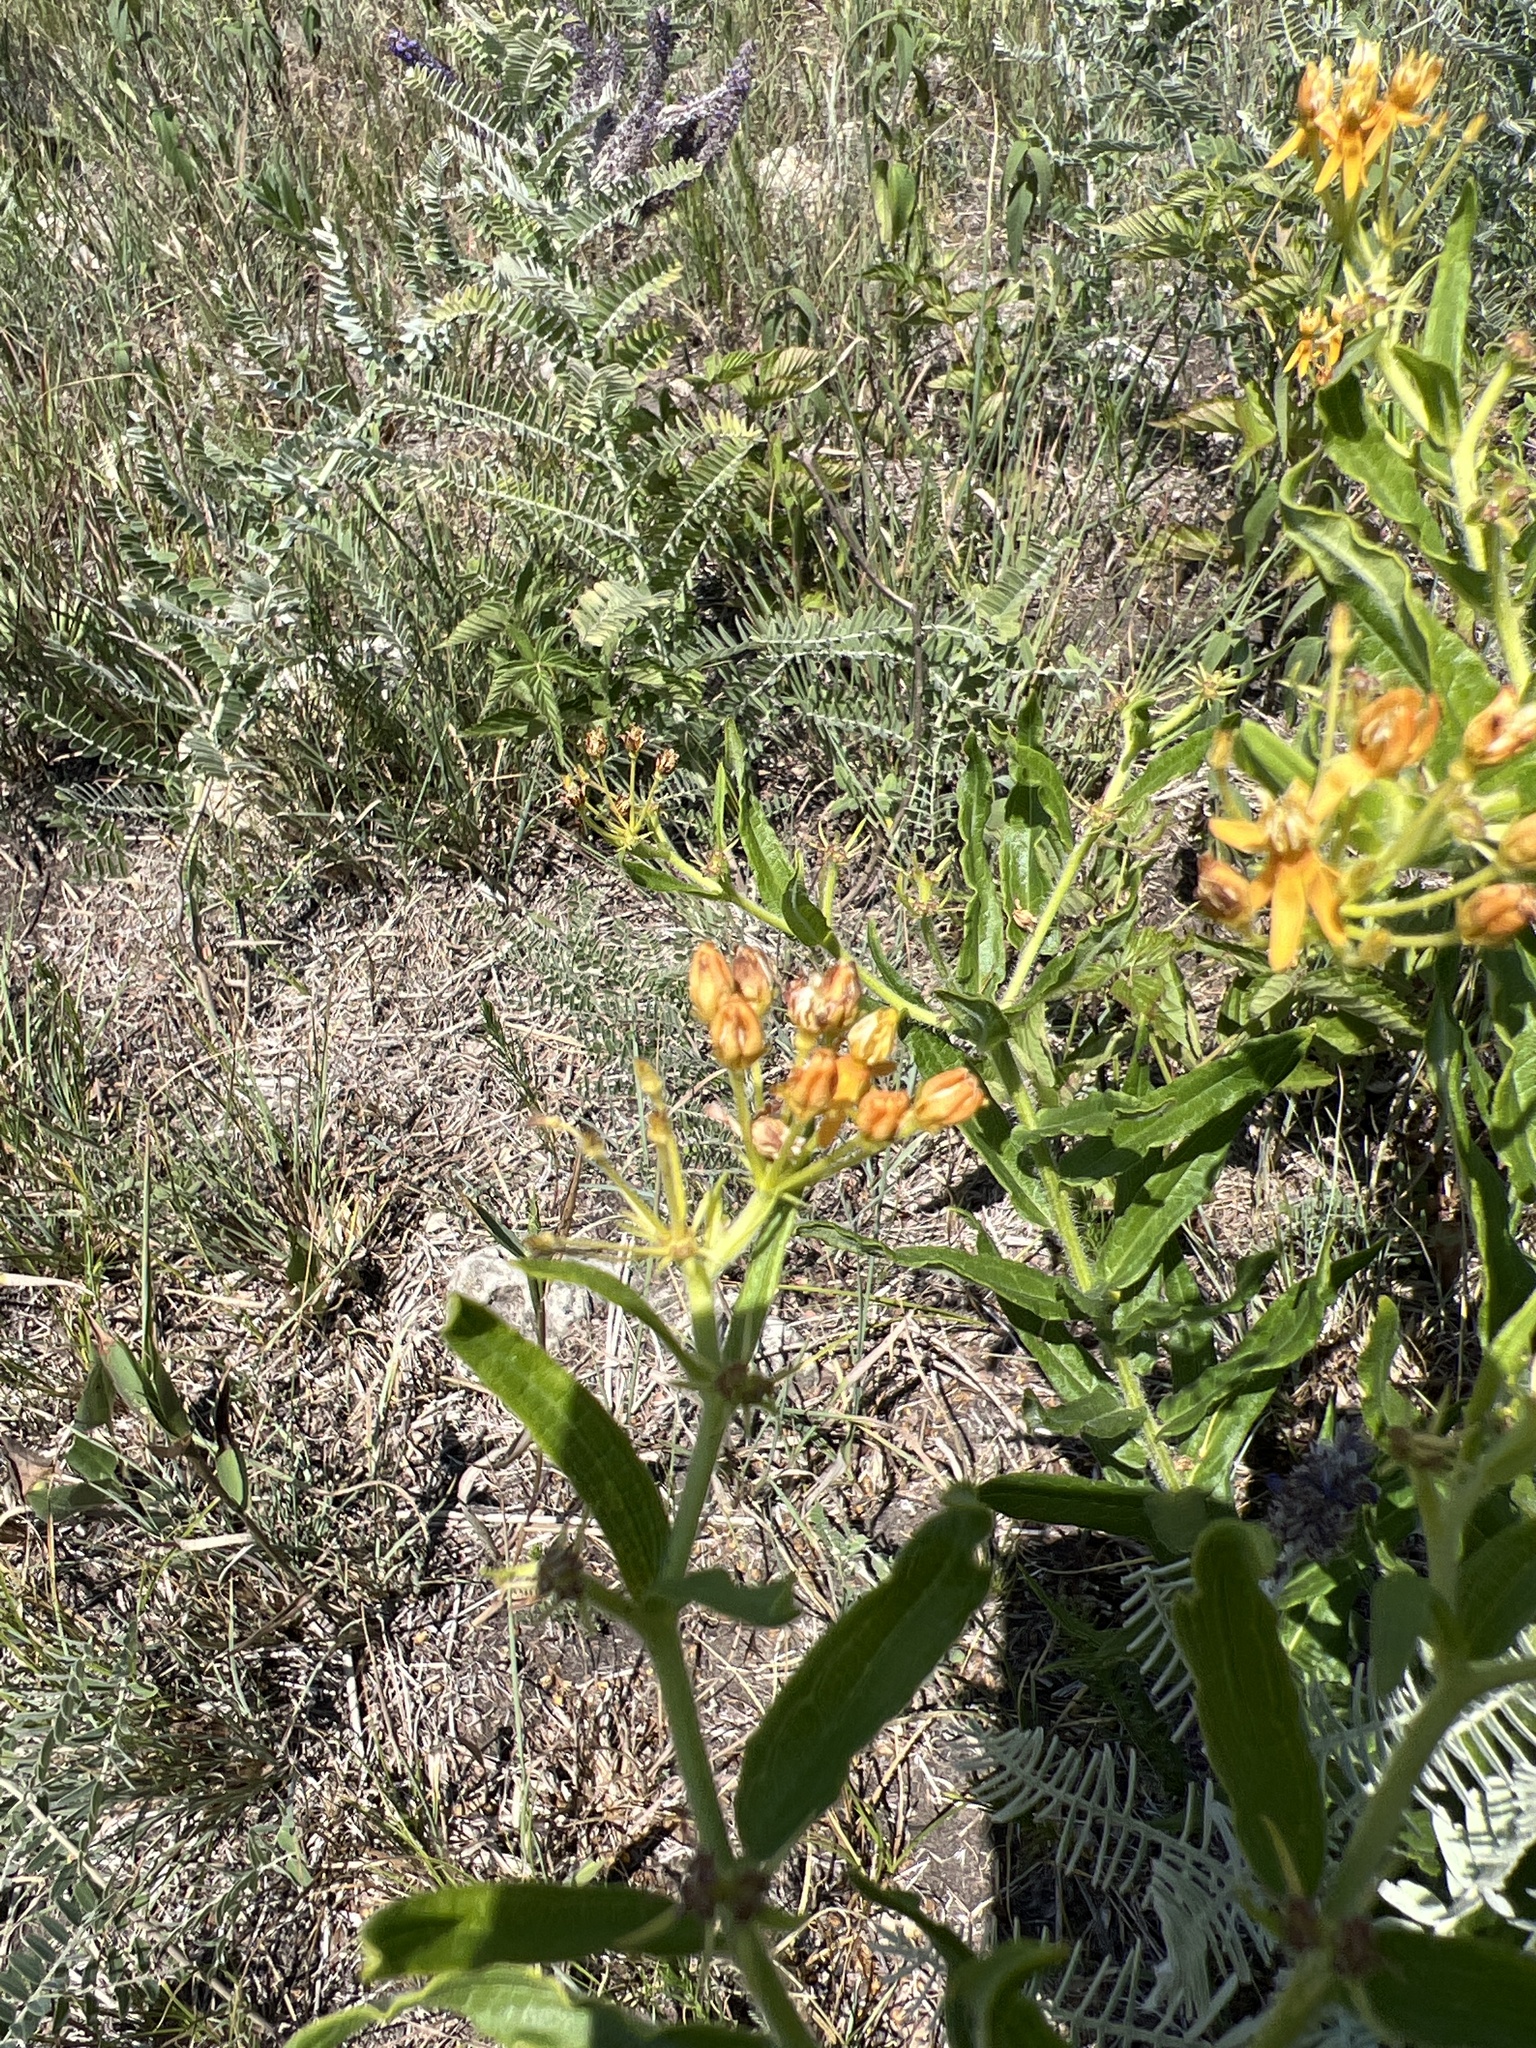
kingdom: Plantae
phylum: Tracheophyta
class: Magnoliopsida
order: Gentianales
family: Apocynaceae
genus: Asclepias
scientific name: Asclepias tuberosa
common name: Butterfly milkweed
